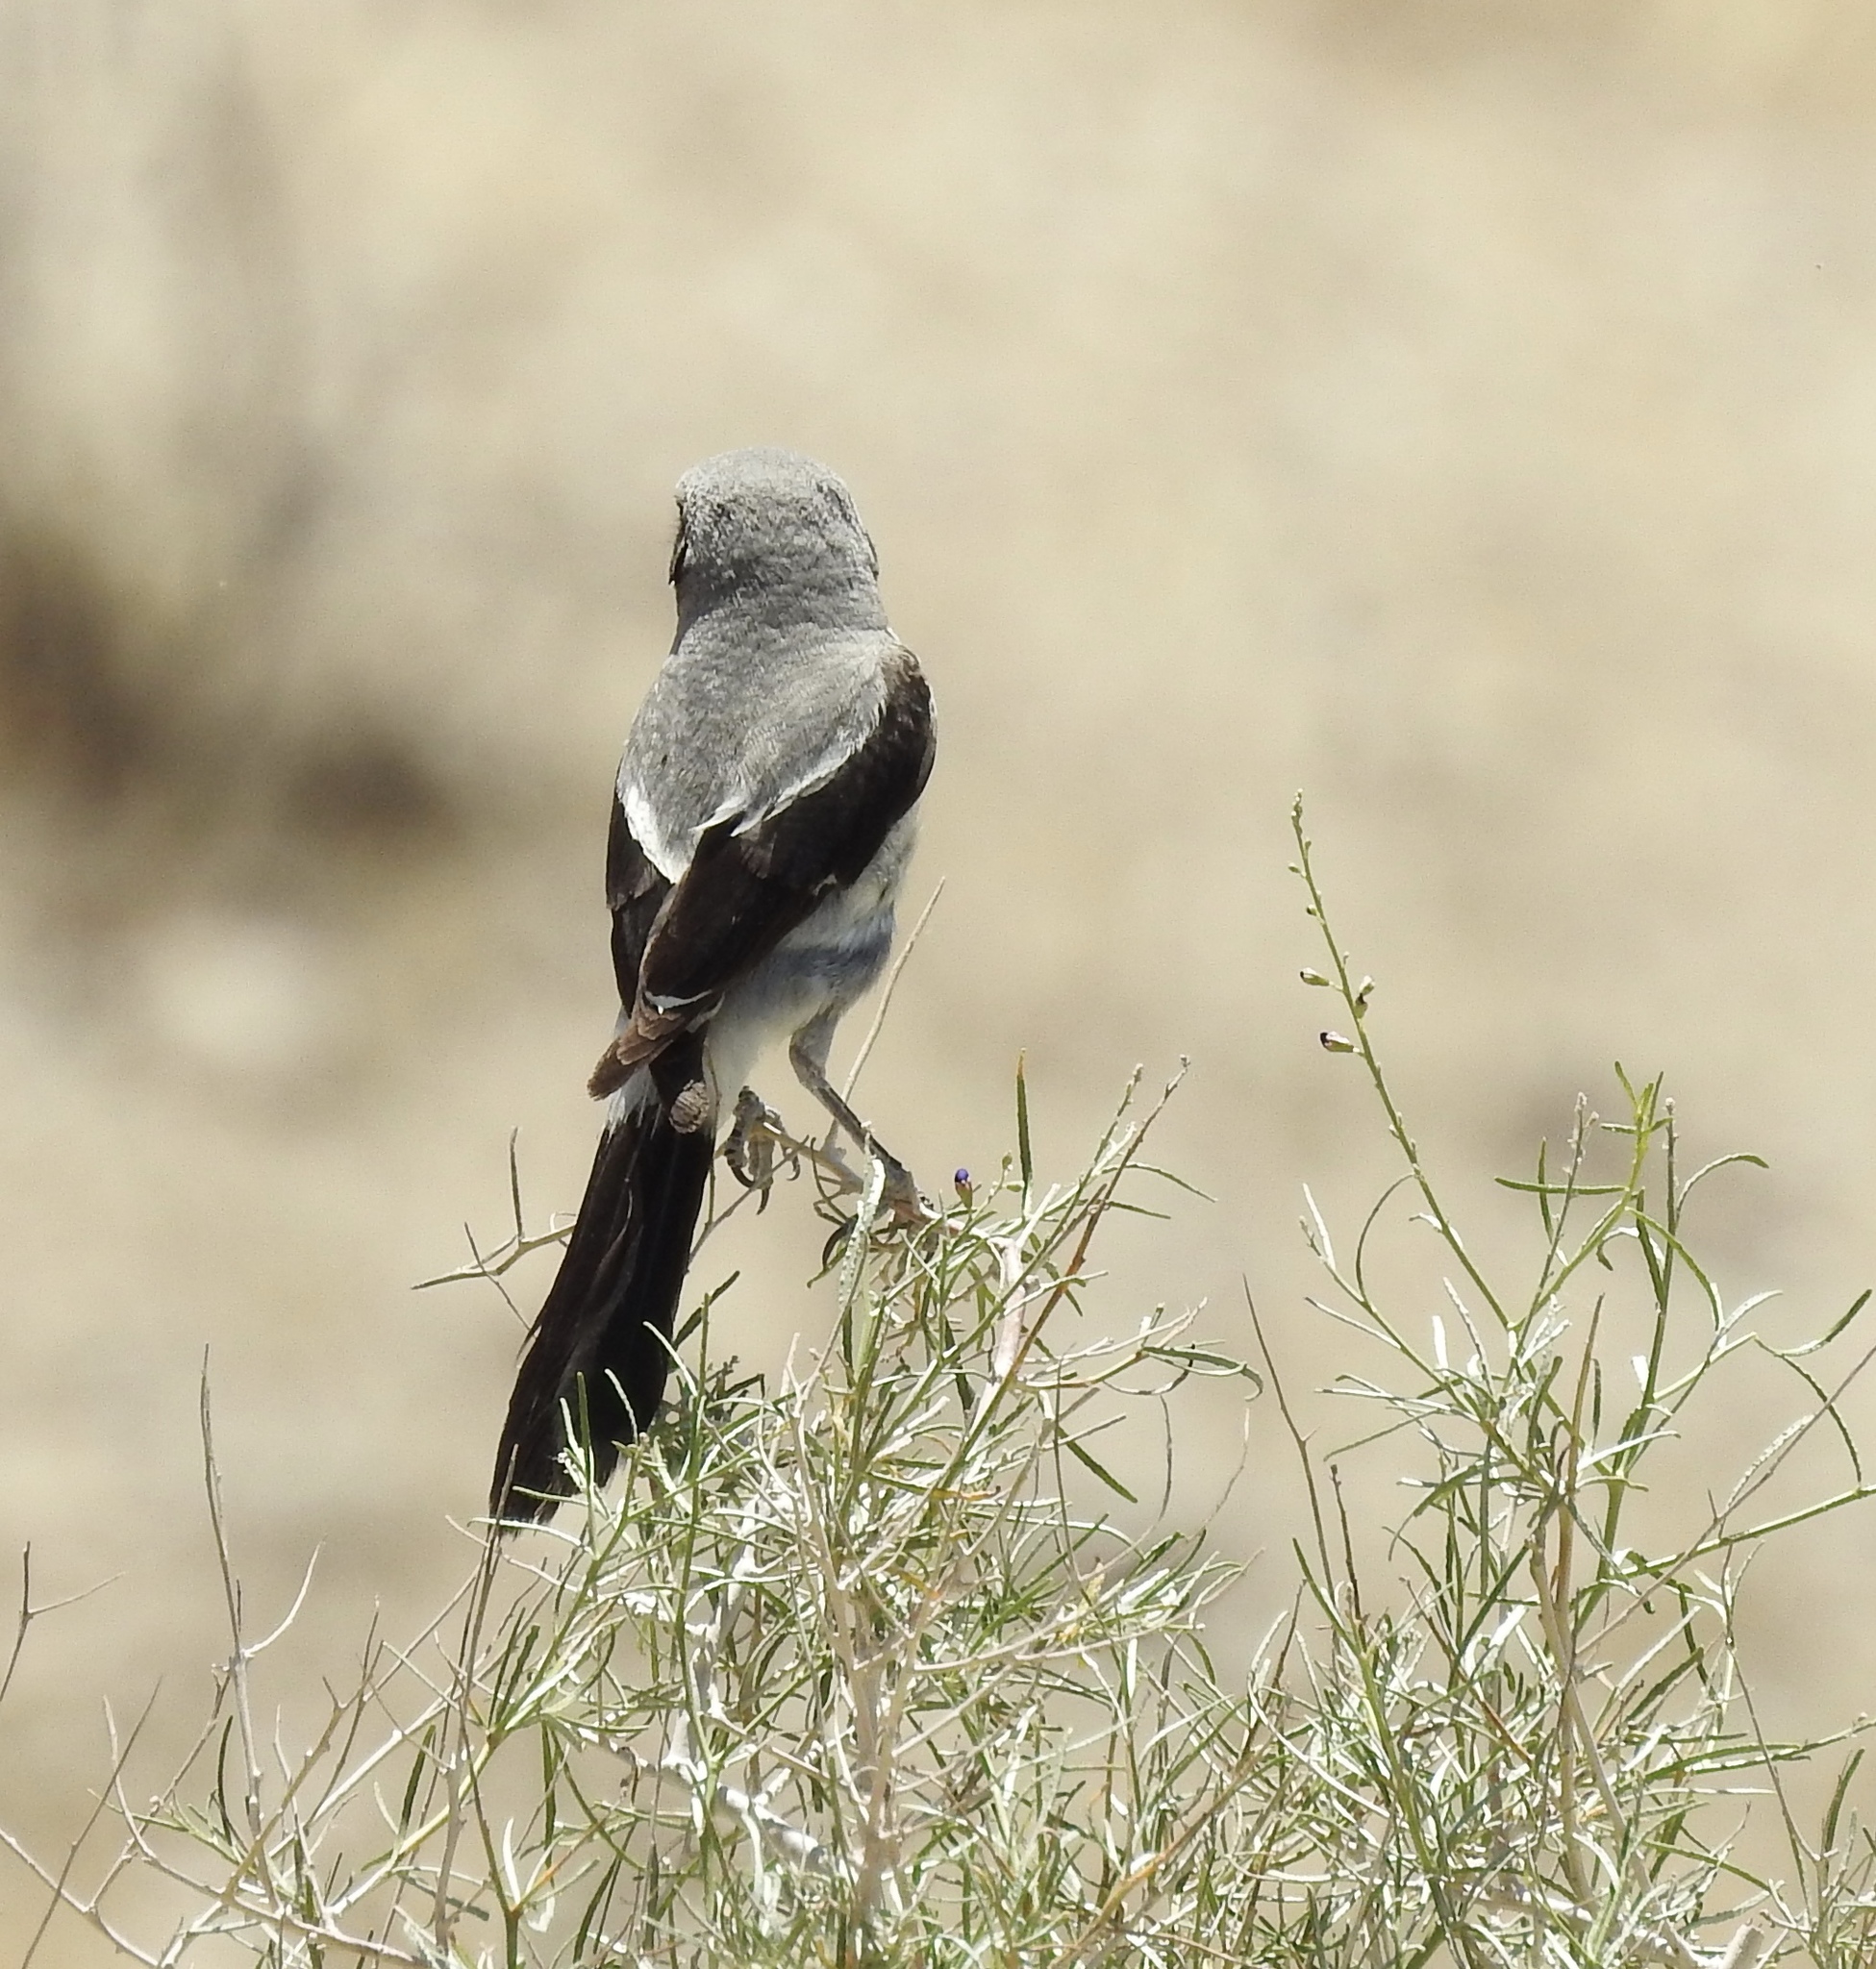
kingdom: Animalia
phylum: Chordata
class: Aves
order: Passeriformes
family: Laniidae
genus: Lanius
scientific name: Lanius ludovicianus
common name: Loggerhead shrike
